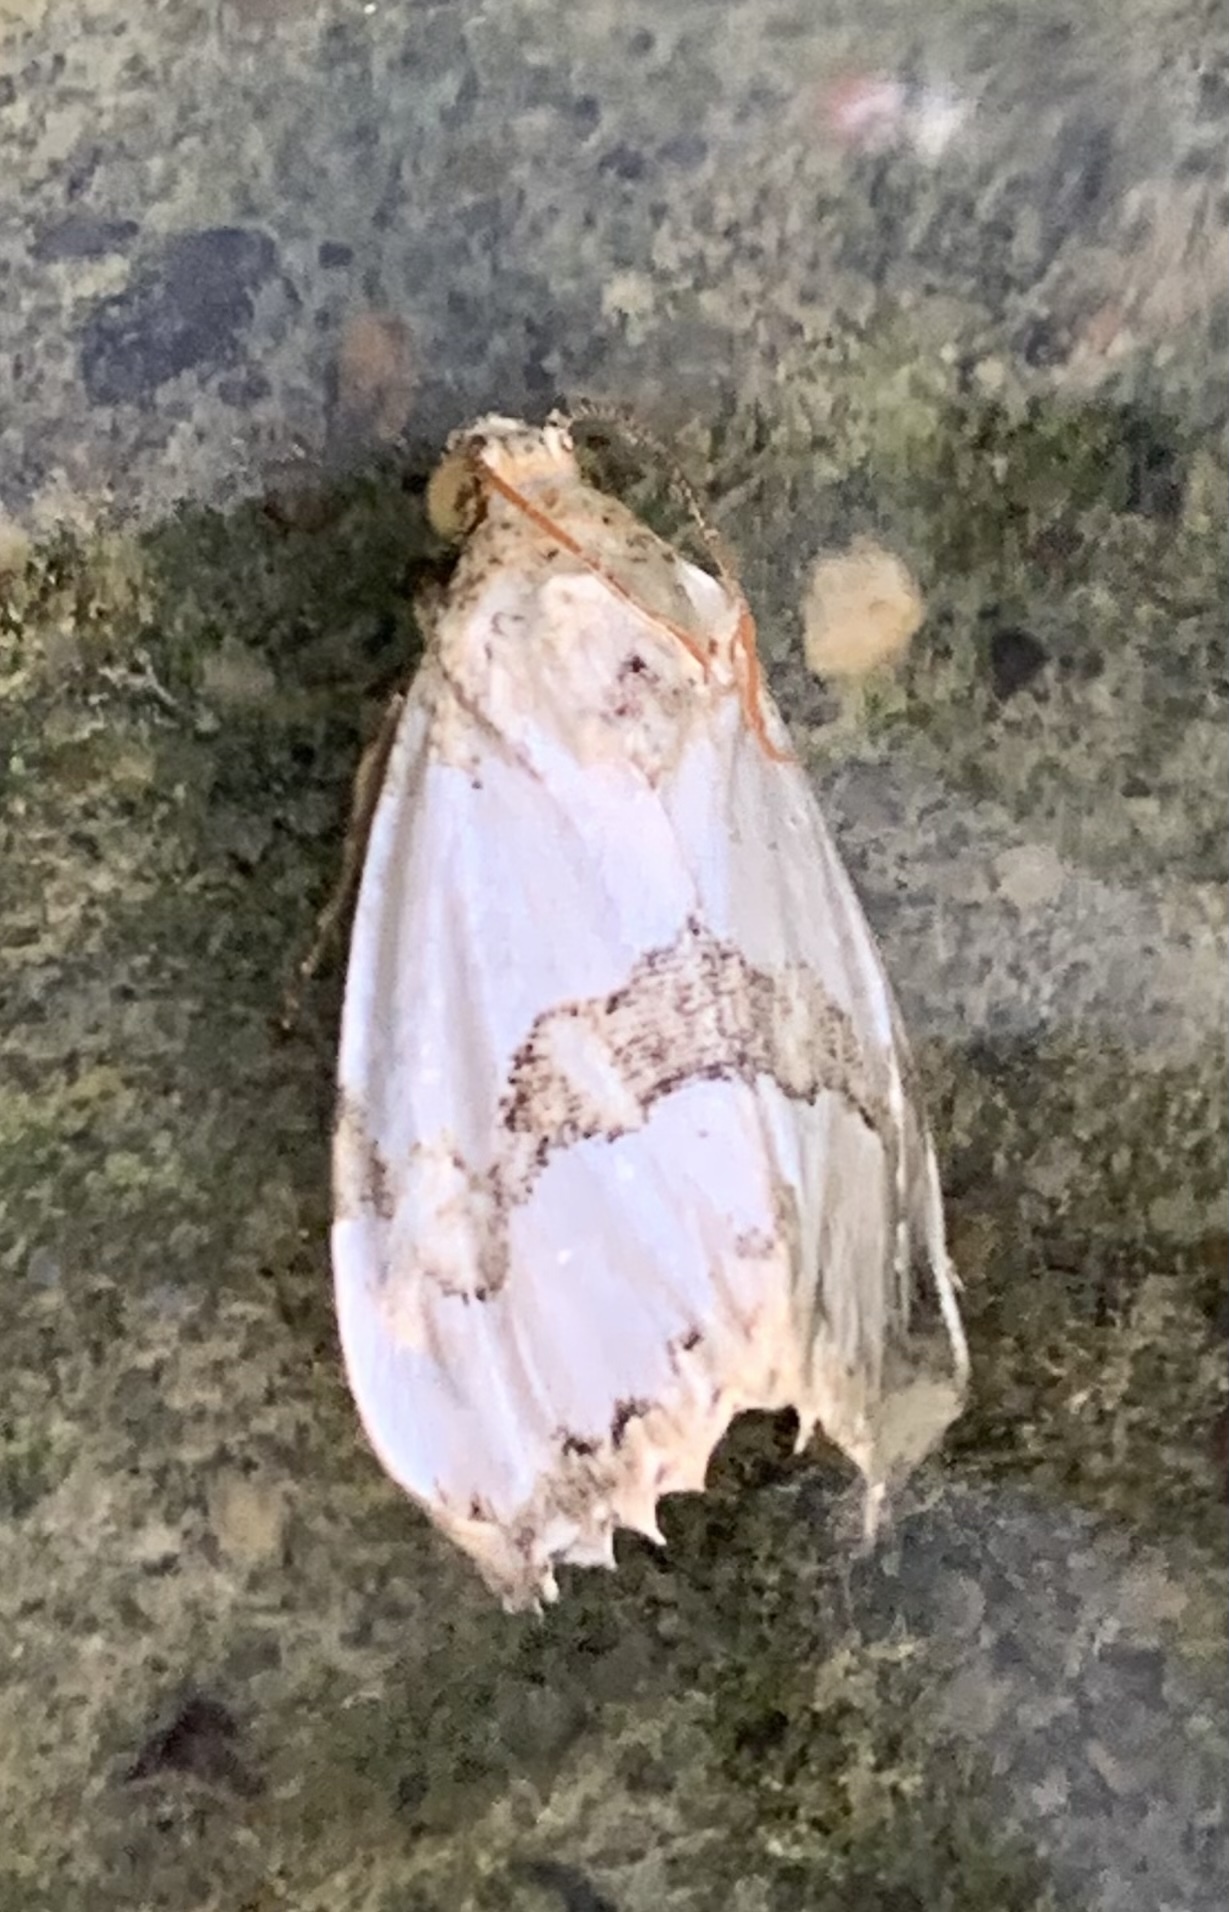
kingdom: Animalia
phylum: Arthropoda
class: Insecta
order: Lepidoptera
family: Noctuidae
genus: Schinia
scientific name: Schinia chrysellus
